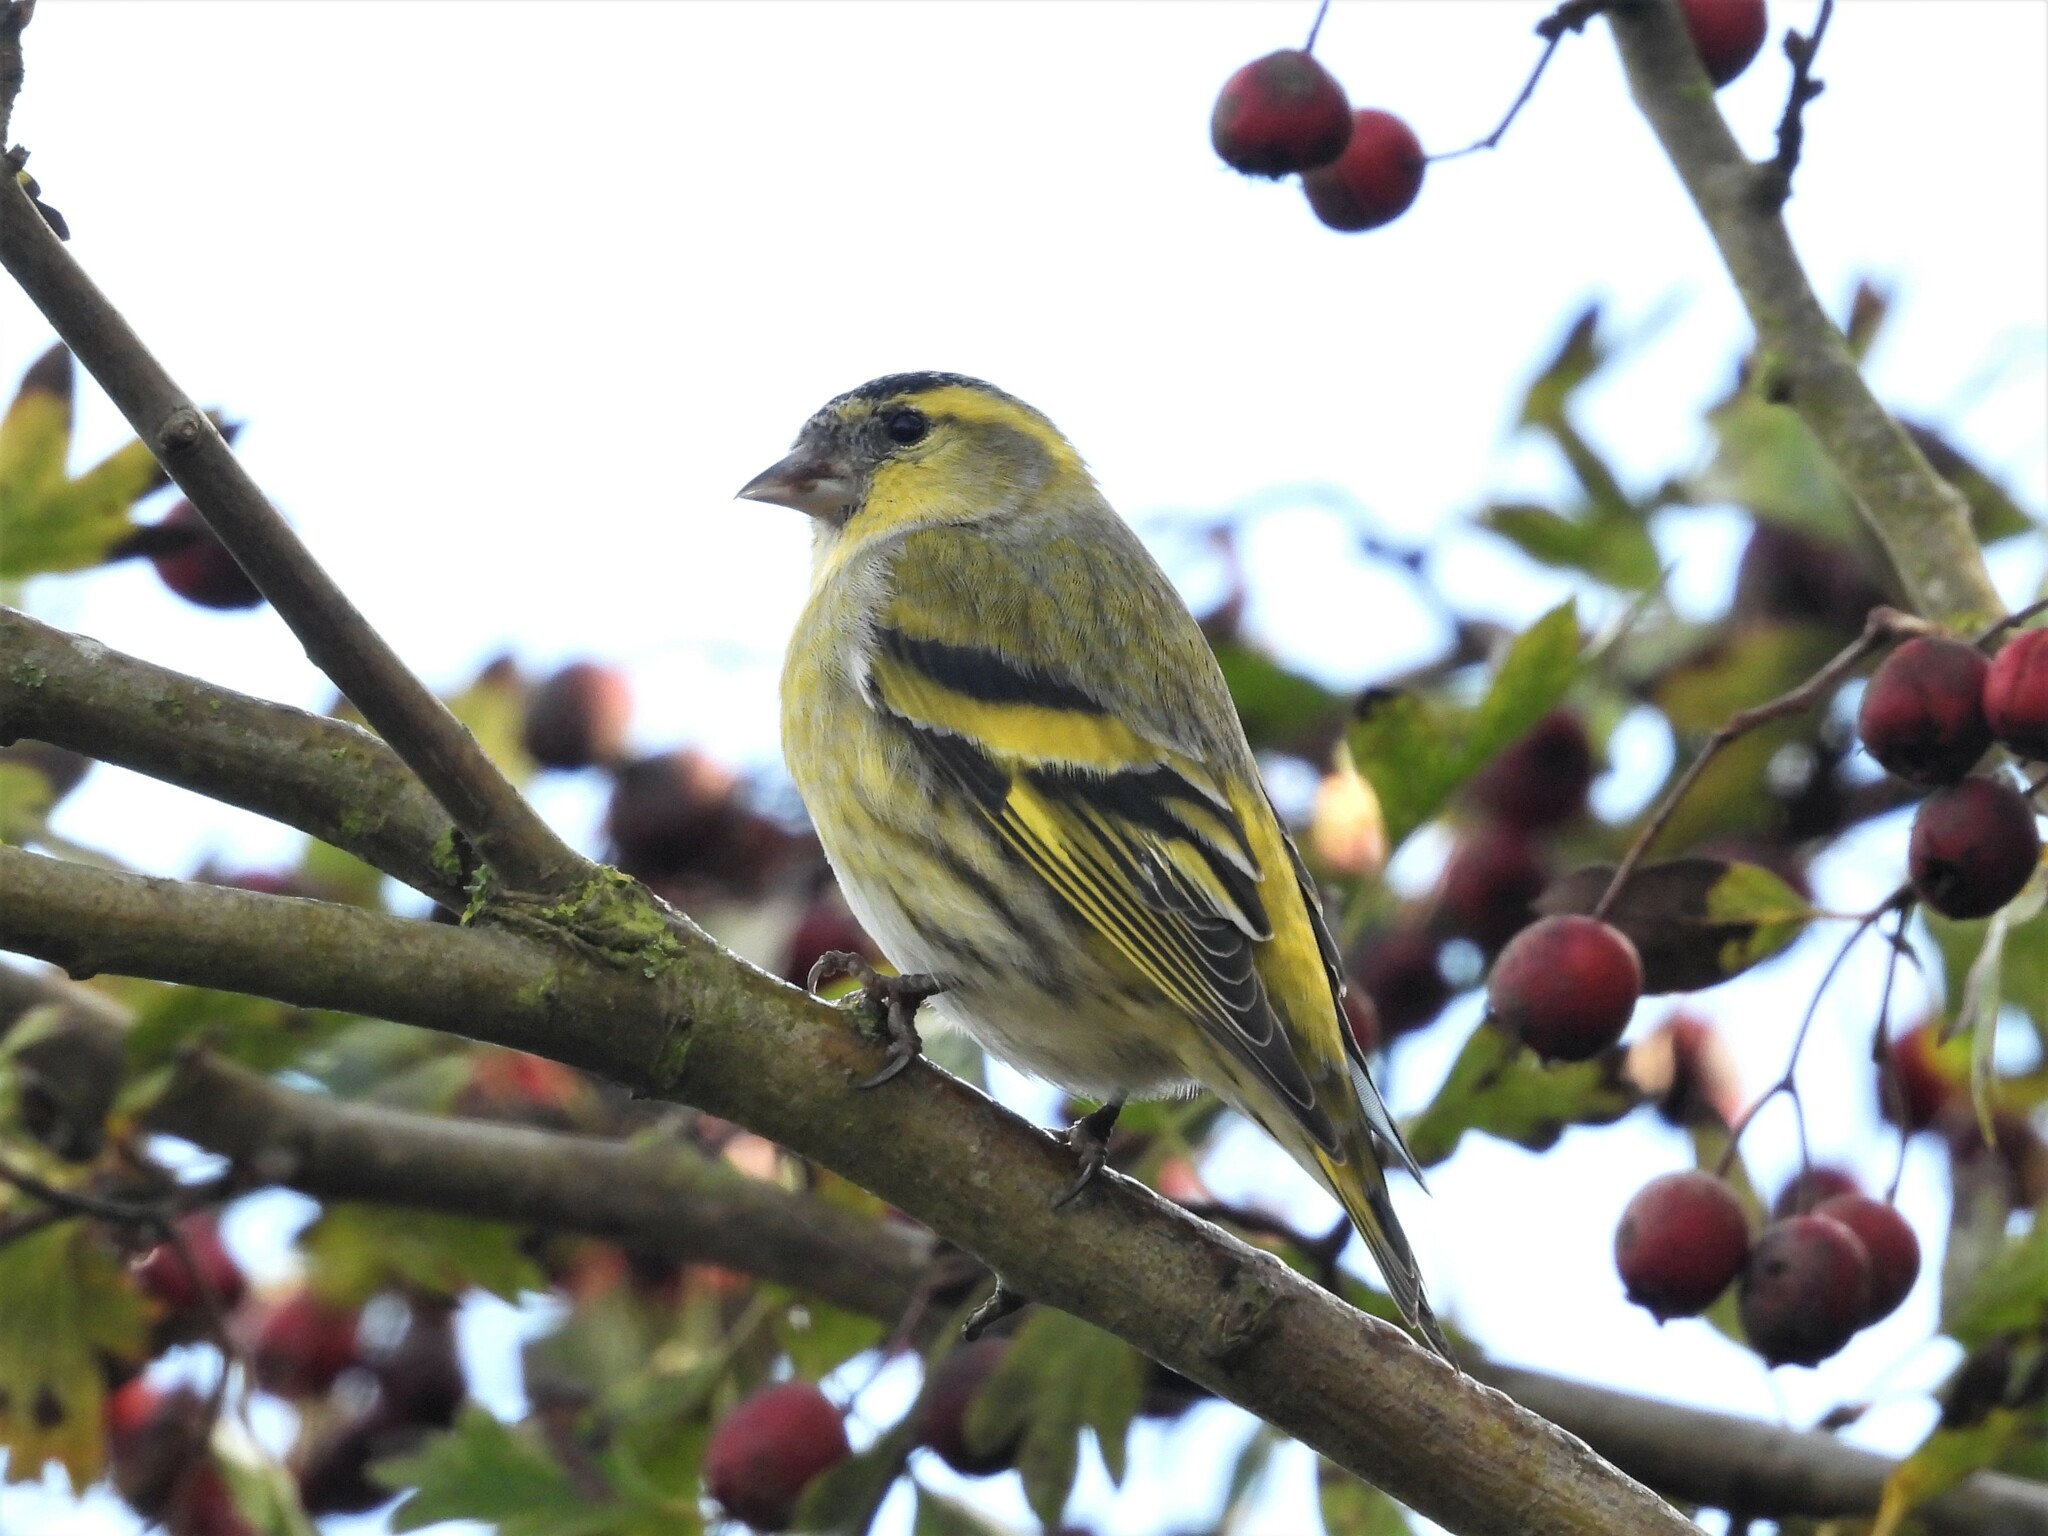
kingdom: Animalia
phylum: Chordata
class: Aves
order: Passeriformes
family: Fringillidae
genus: Spinus
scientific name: Spinus spinus
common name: Eurasian siskin
